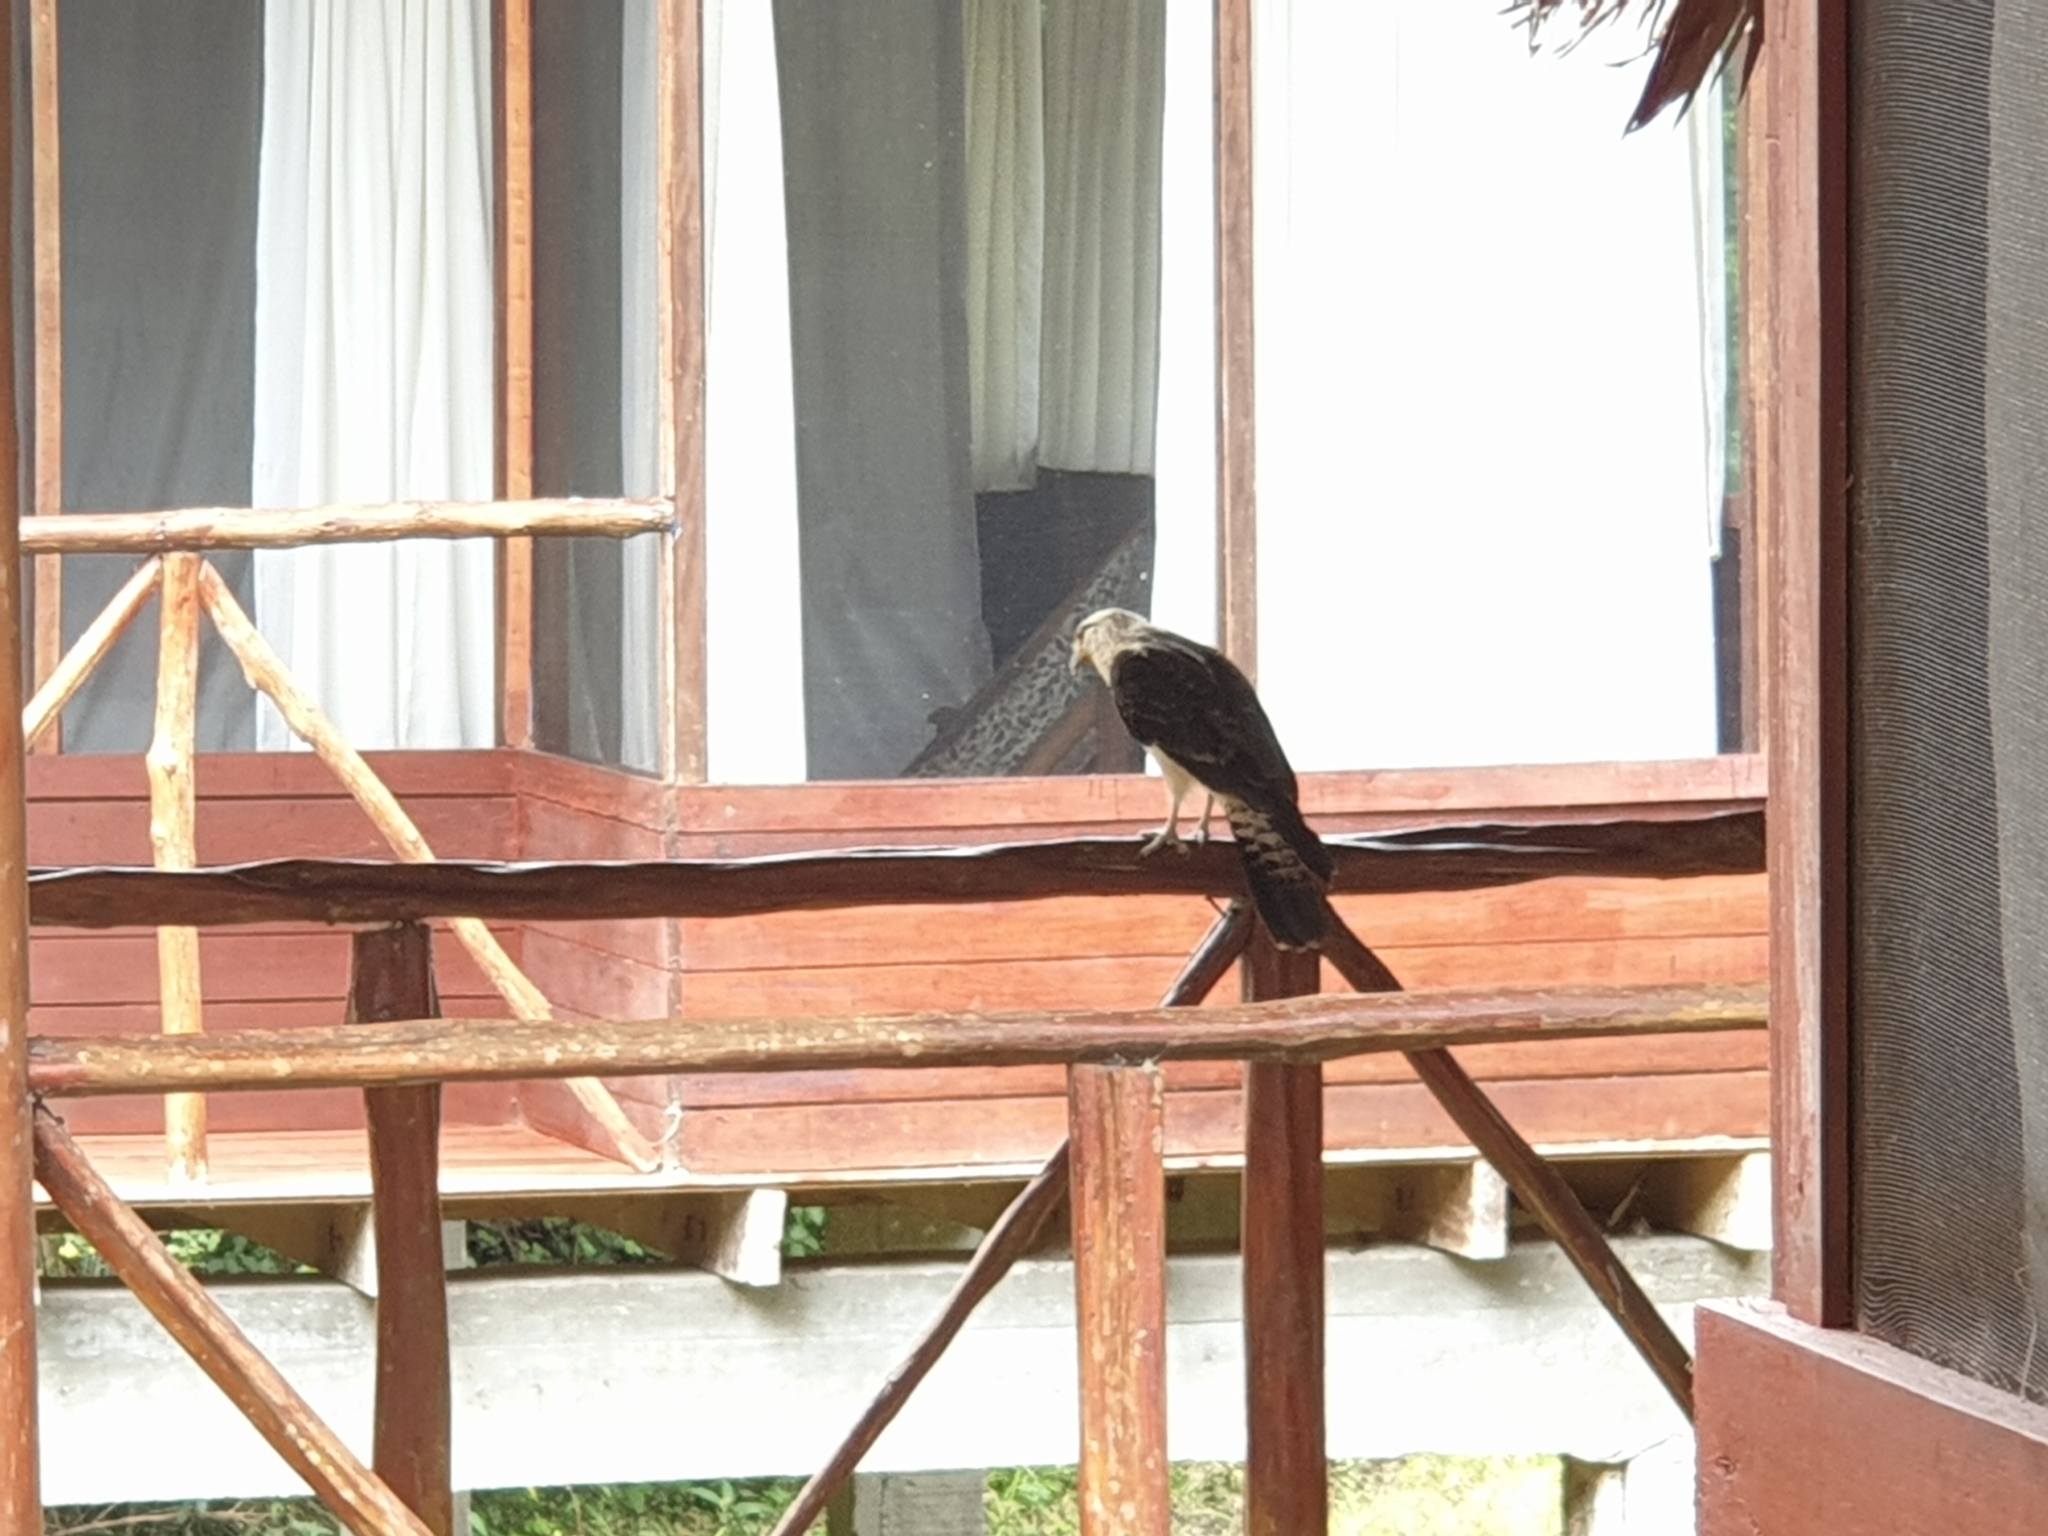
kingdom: Animalia
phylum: Chordata
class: Aves
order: Falconiformes
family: Falconidae
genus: Daptrius
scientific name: Daptrius
